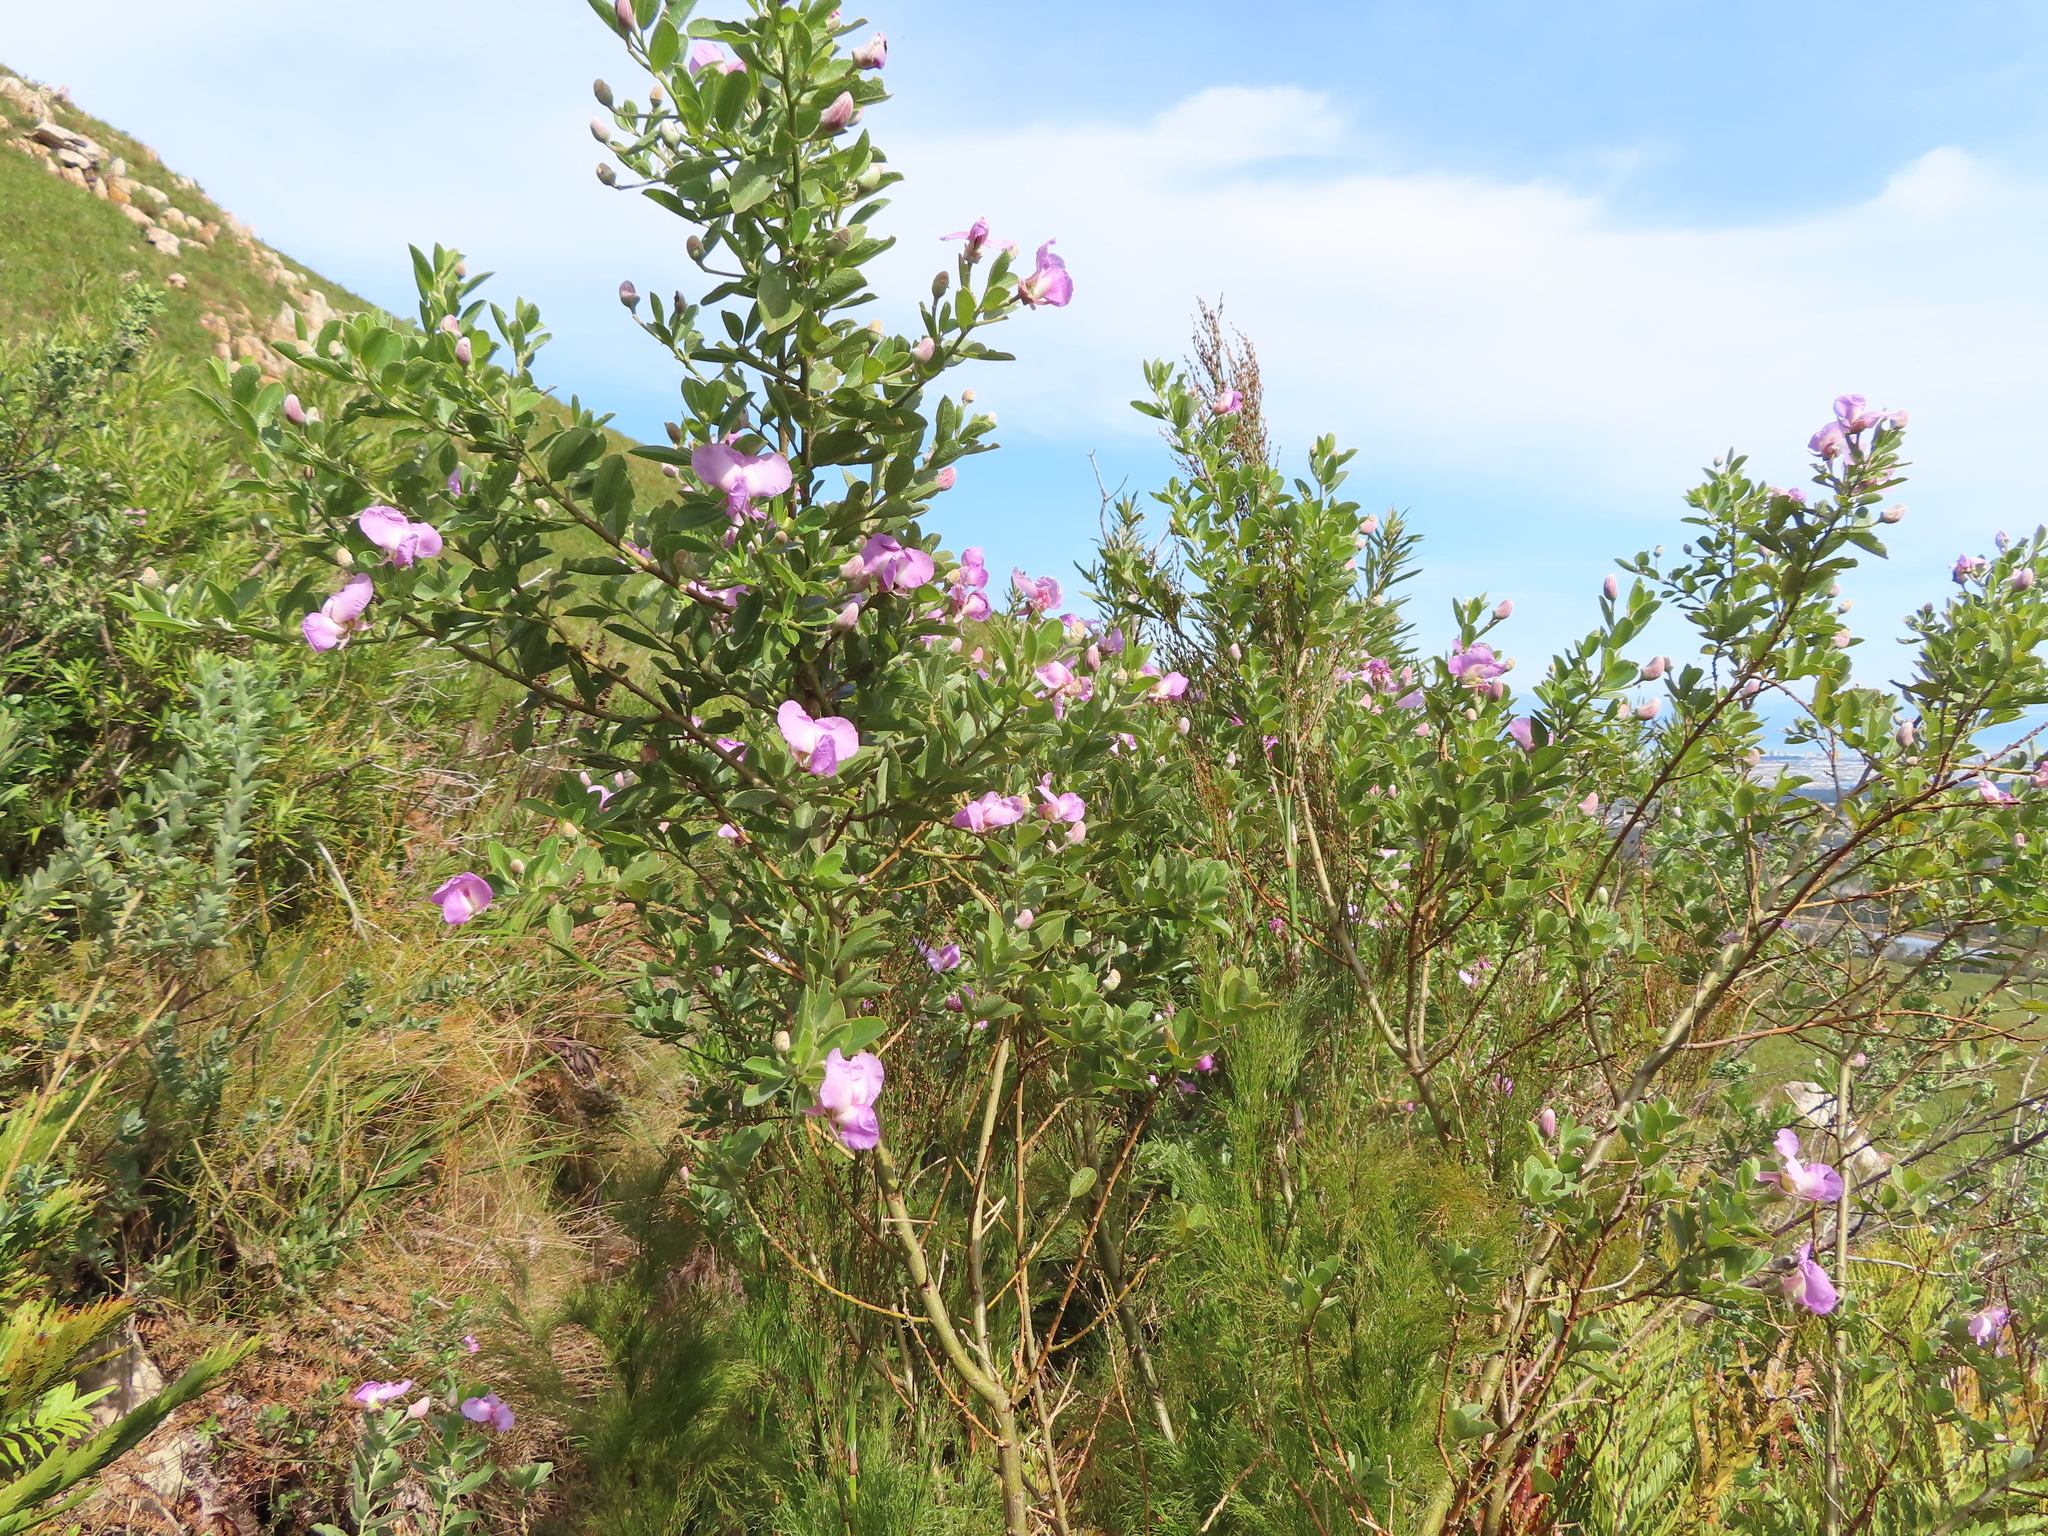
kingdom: Plantae
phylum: Tracheophyta
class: Magnoliopsida
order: Fabales
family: Fabaceae
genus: Podalyria
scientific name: Podalyria calyptrata
